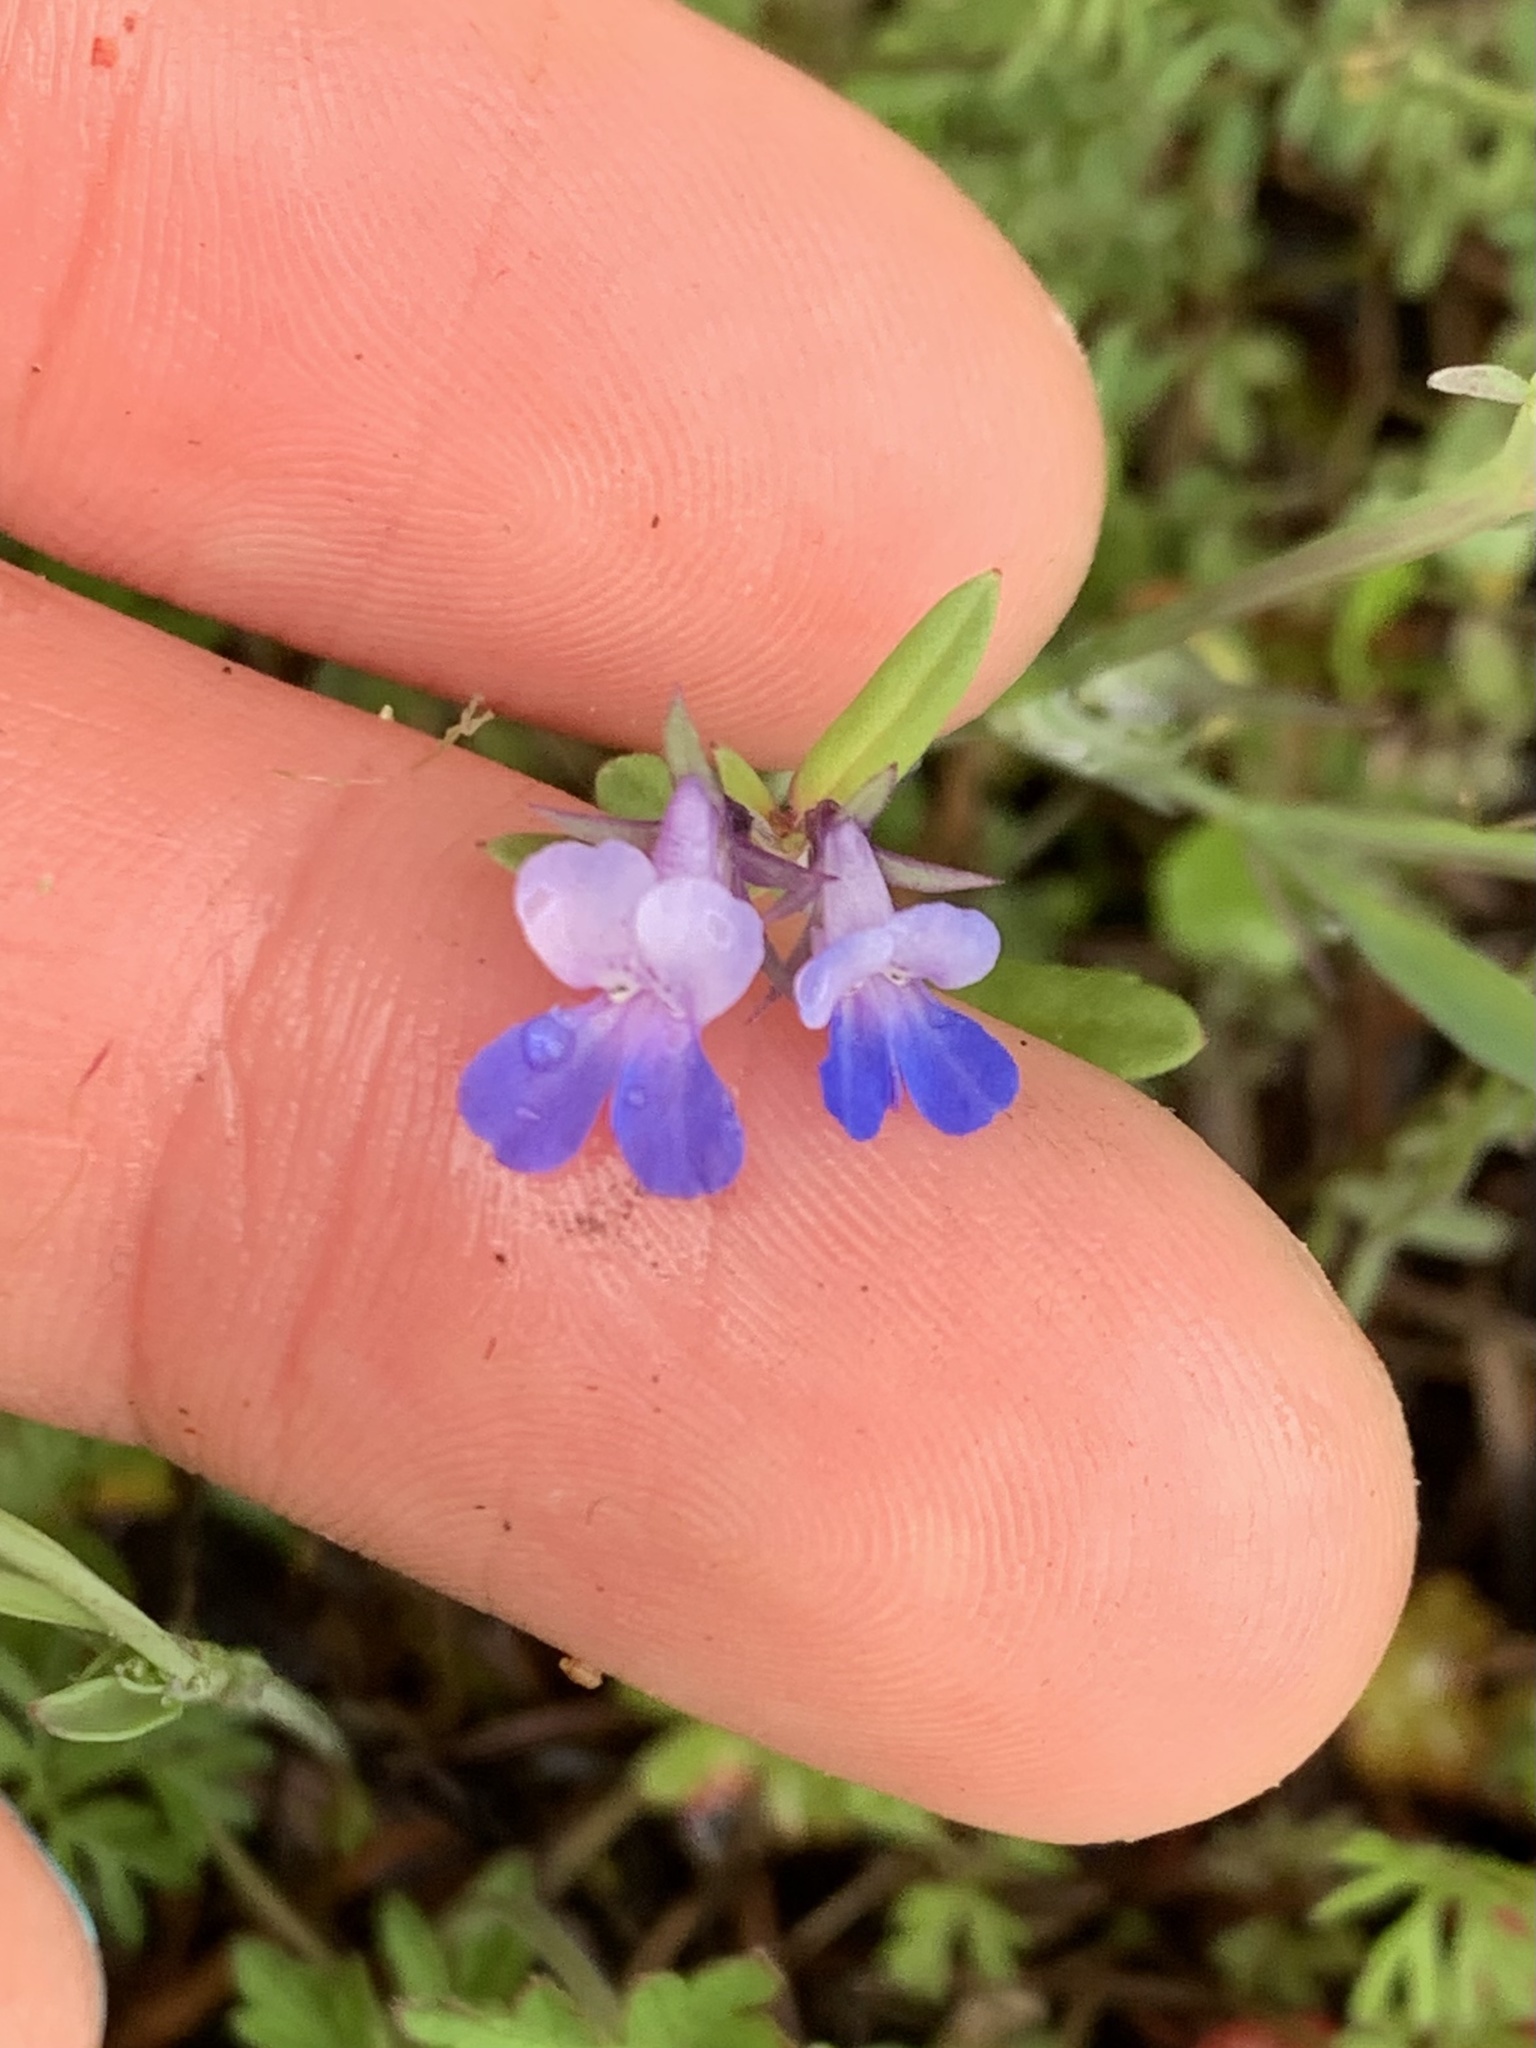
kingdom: Plantae
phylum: Tracheophyta
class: Magnoliopsida
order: Lamiales
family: Plantaginaceae
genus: Collinsia
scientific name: Collinsia parviflora
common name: Blue-lips
